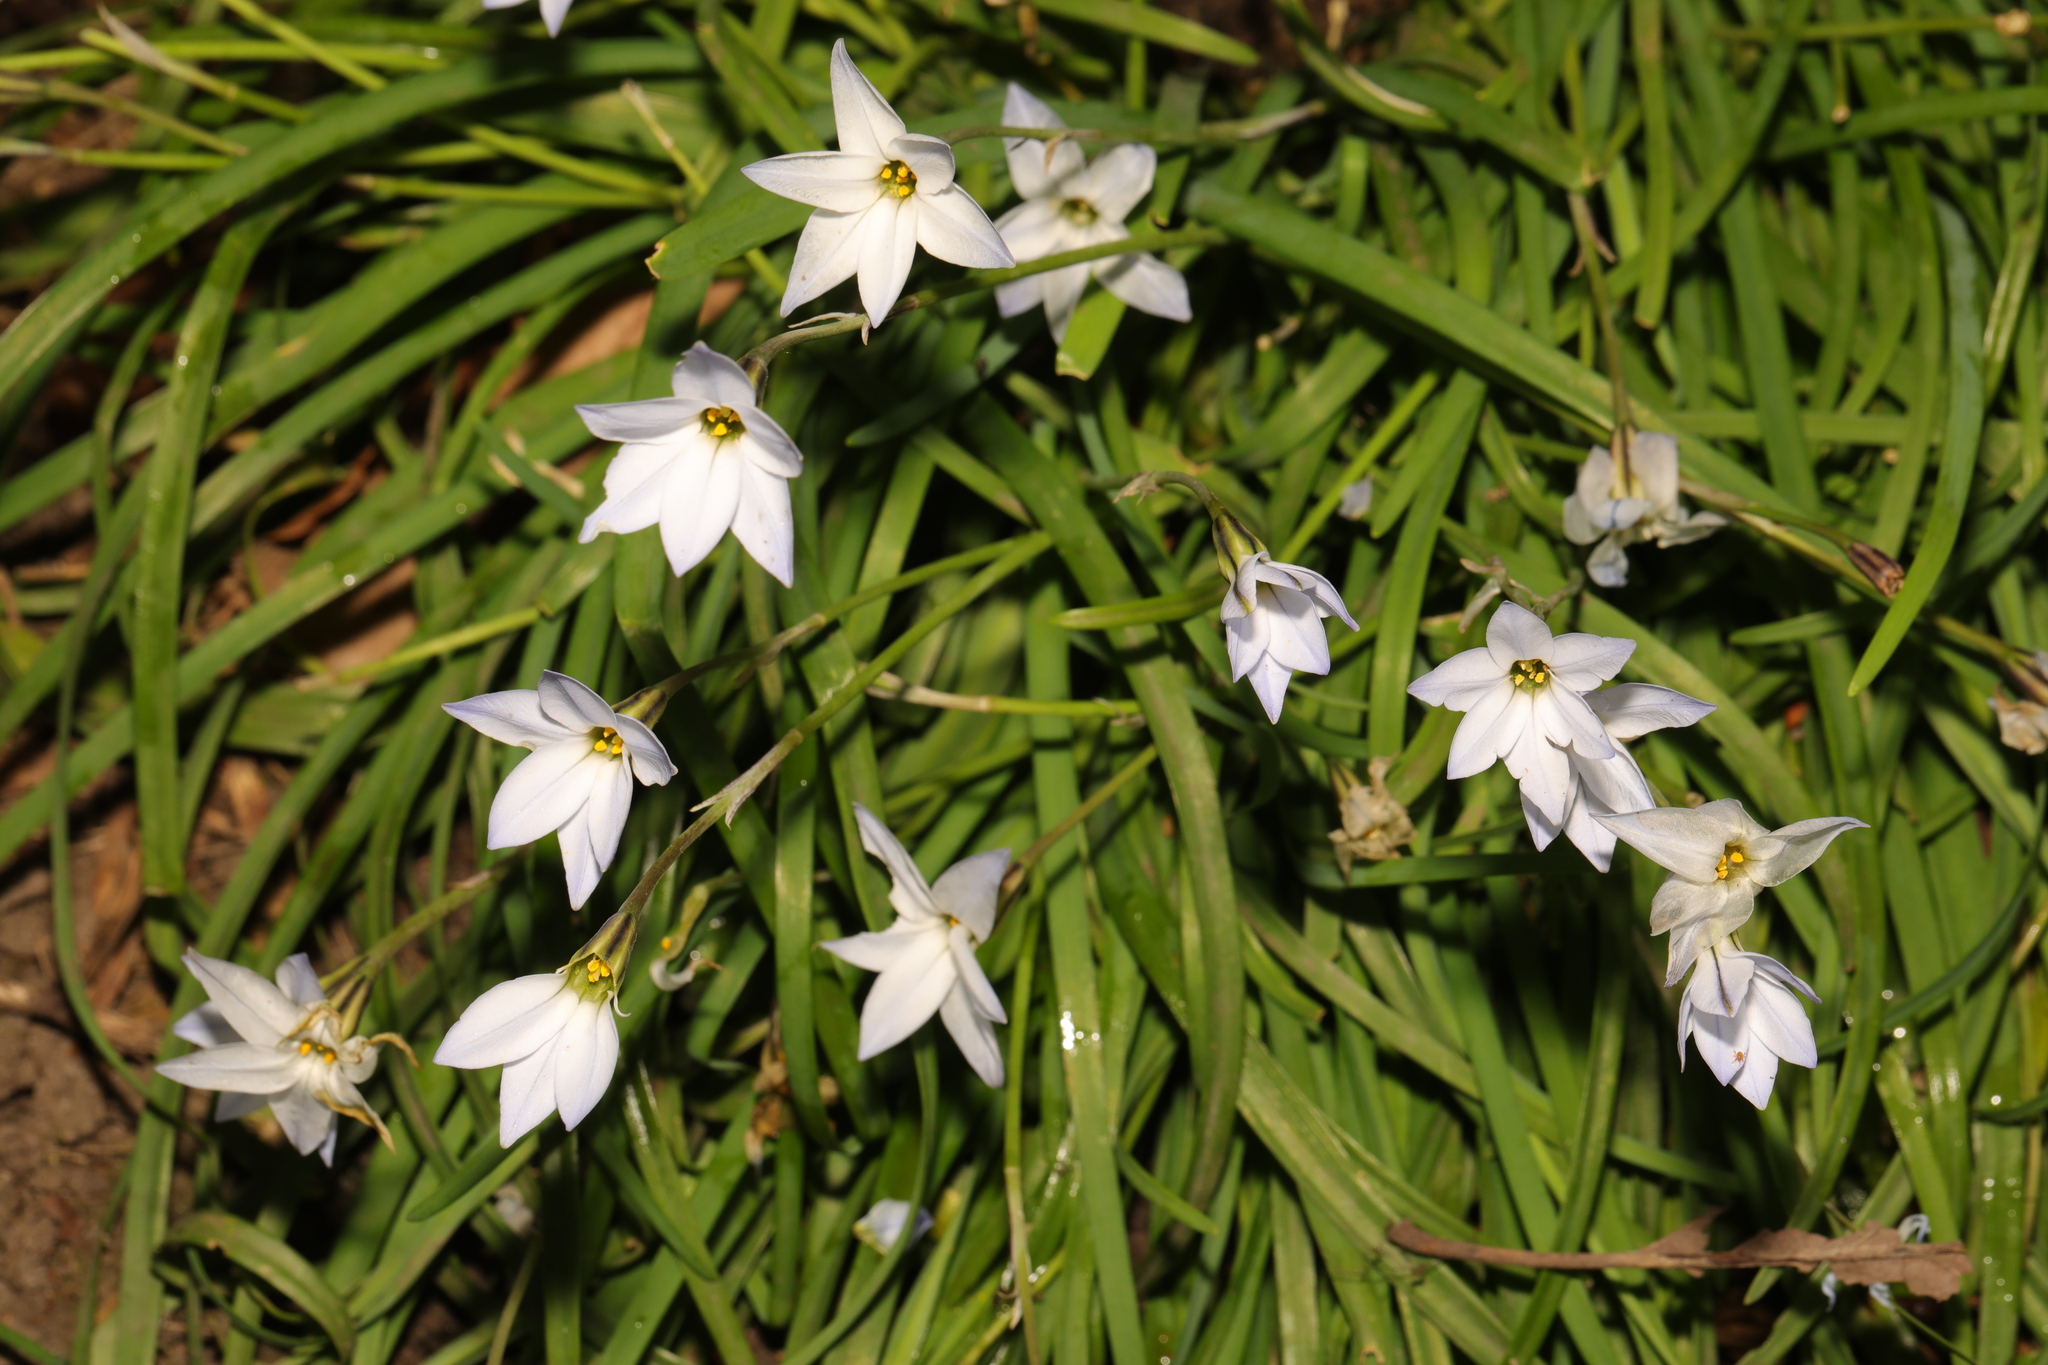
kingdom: Plantae
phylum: Tracheophyta
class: Liliopsida
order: Asparagales
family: Amaryllidaceae
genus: Ipheion
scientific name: Ipheion uniflorum
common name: Spring starflower
